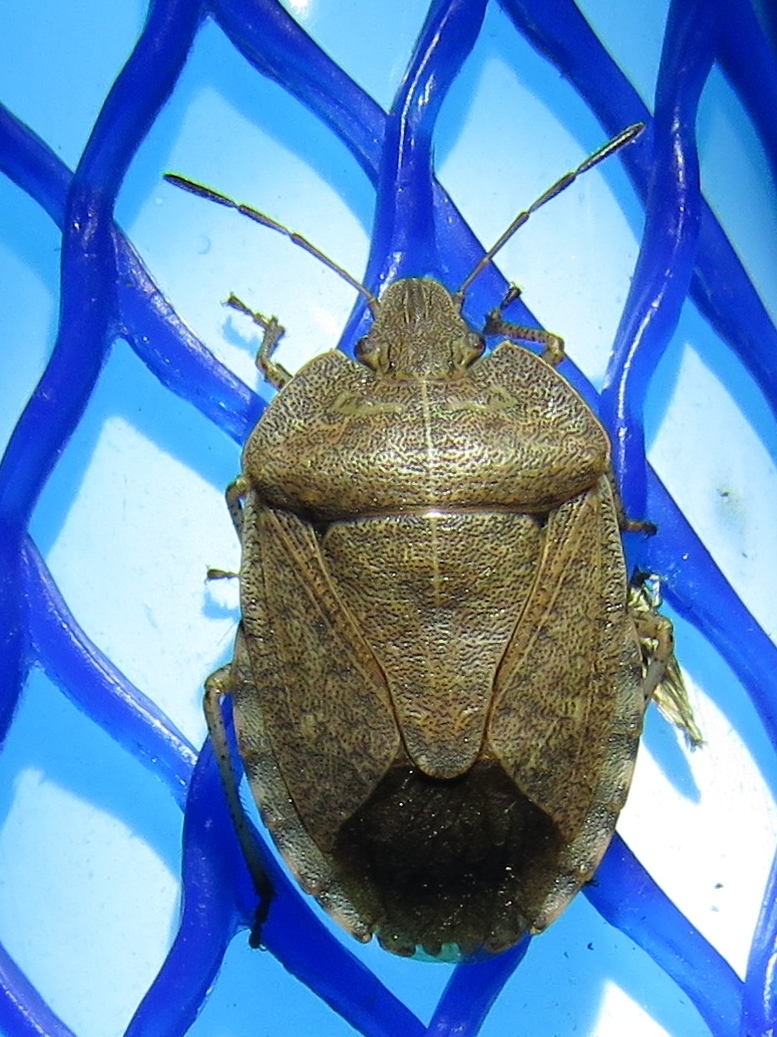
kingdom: Animalia
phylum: Arthropoda
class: Insecta
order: Hemiptera
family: Pentatomidae
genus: Menecles
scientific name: Menecles insertus
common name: Elf shoe stink bug
